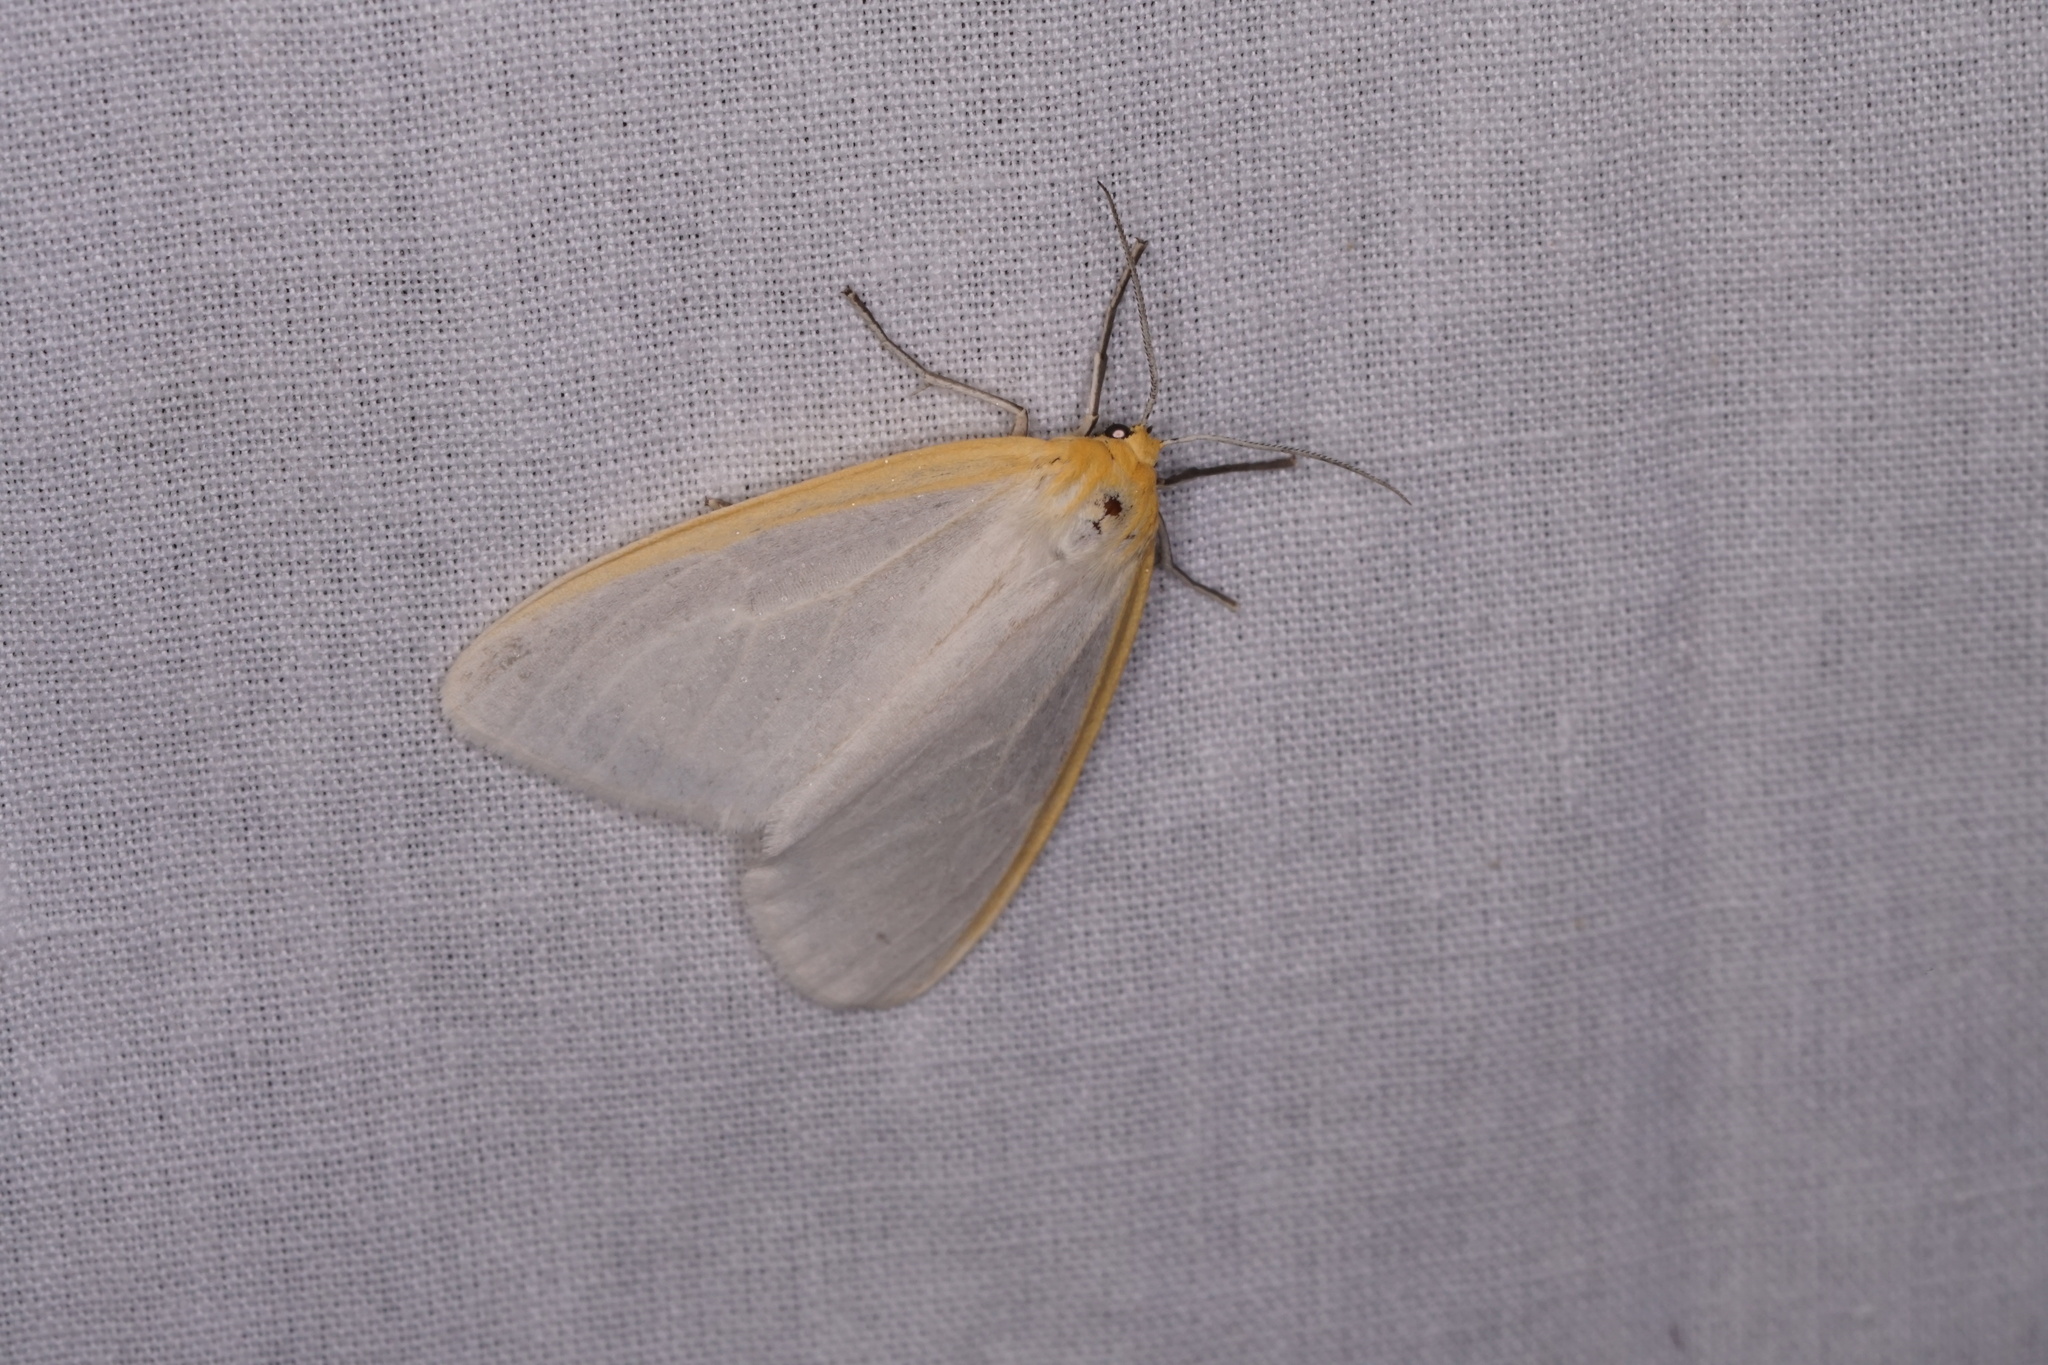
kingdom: Animalia
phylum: Arthropoda
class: Insecta
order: Lepidoptera
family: Erebidae
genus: Cycnia
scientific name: Cycnia tenera
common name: Delicate cycnia moth
